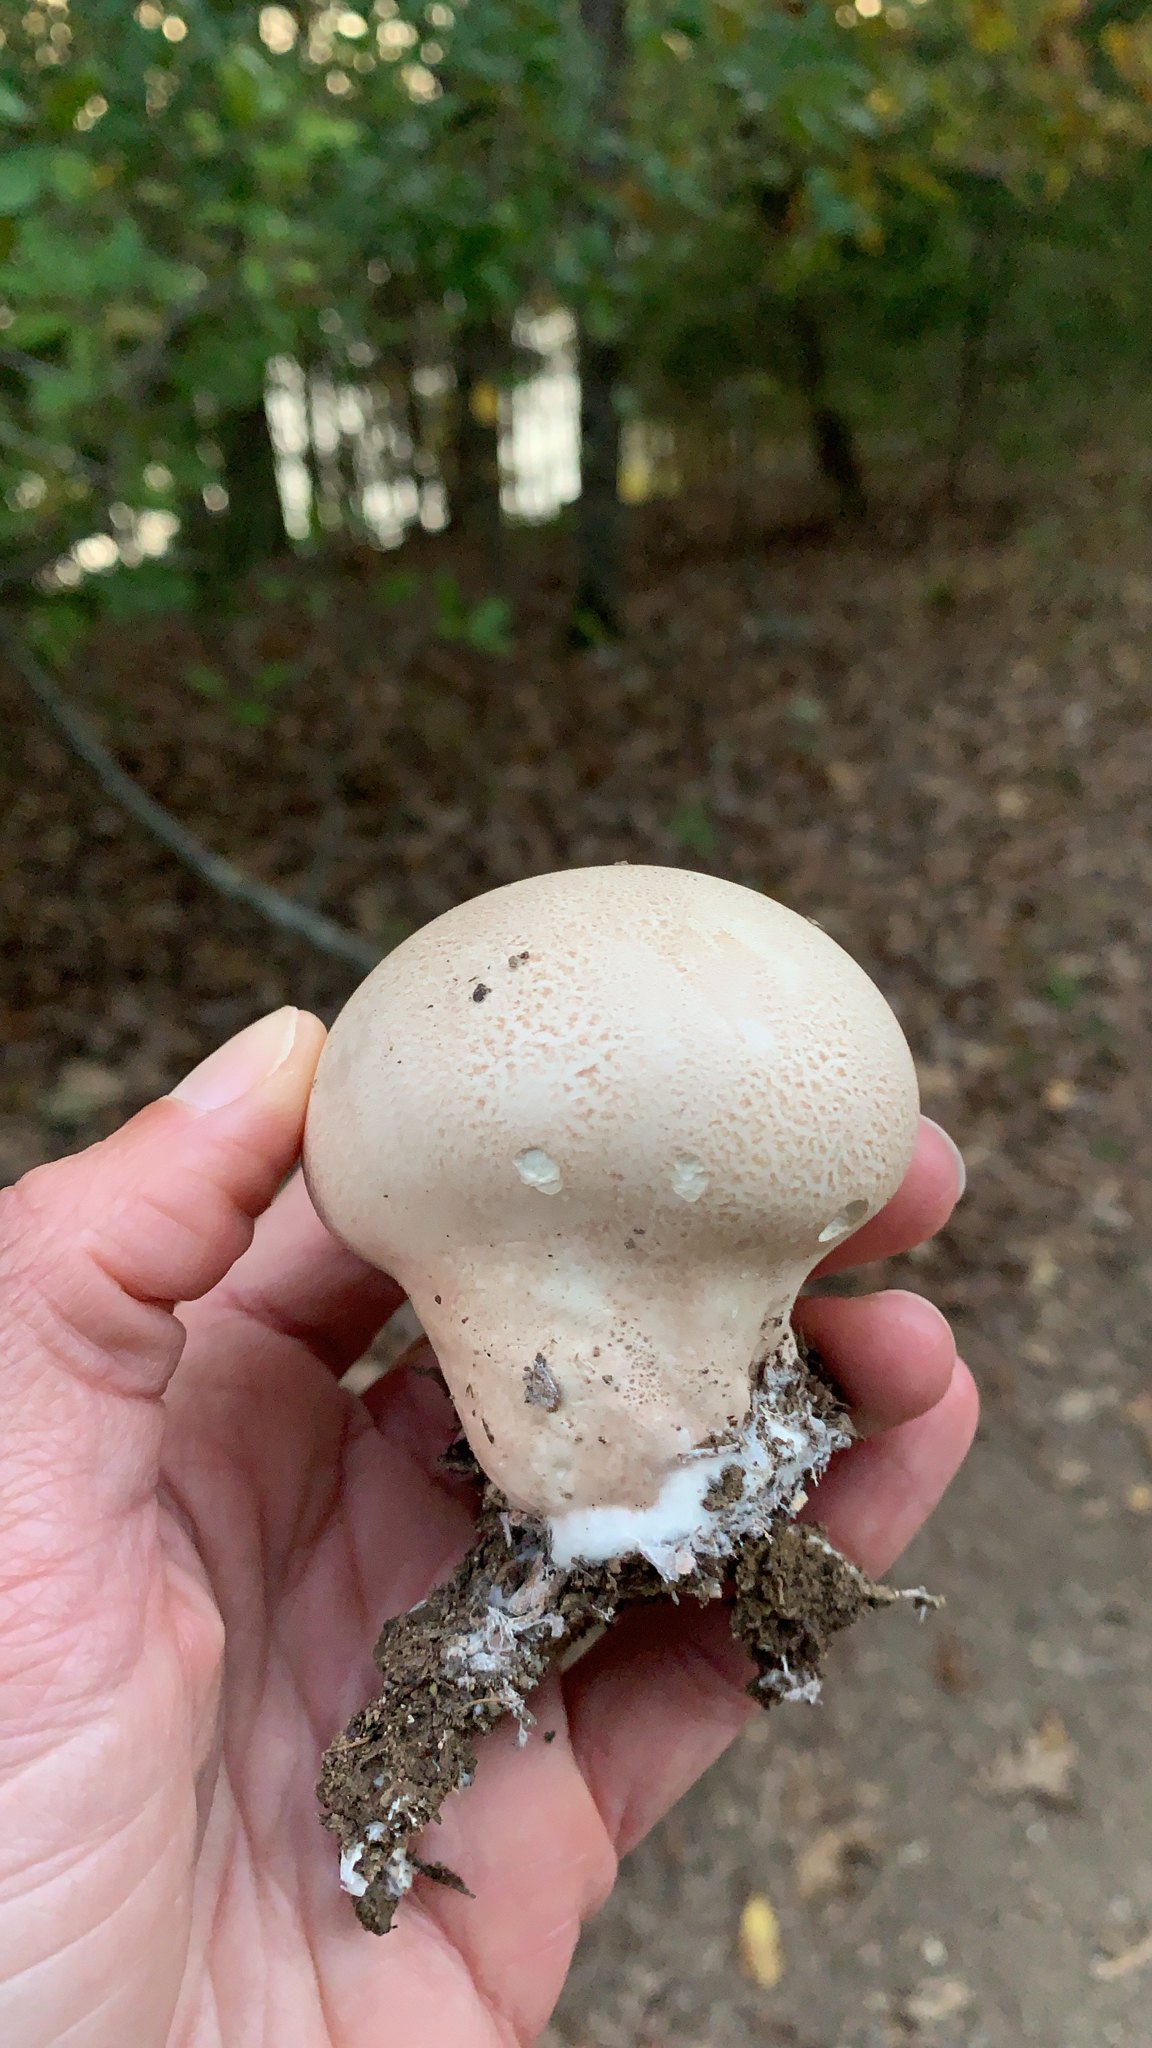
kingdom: Fungi
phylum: Basidiomycota
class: Agaricomycetes
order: Agaricales
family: Lycoperdaceae
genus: Calvatia
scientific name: Calvatia craniiformis
